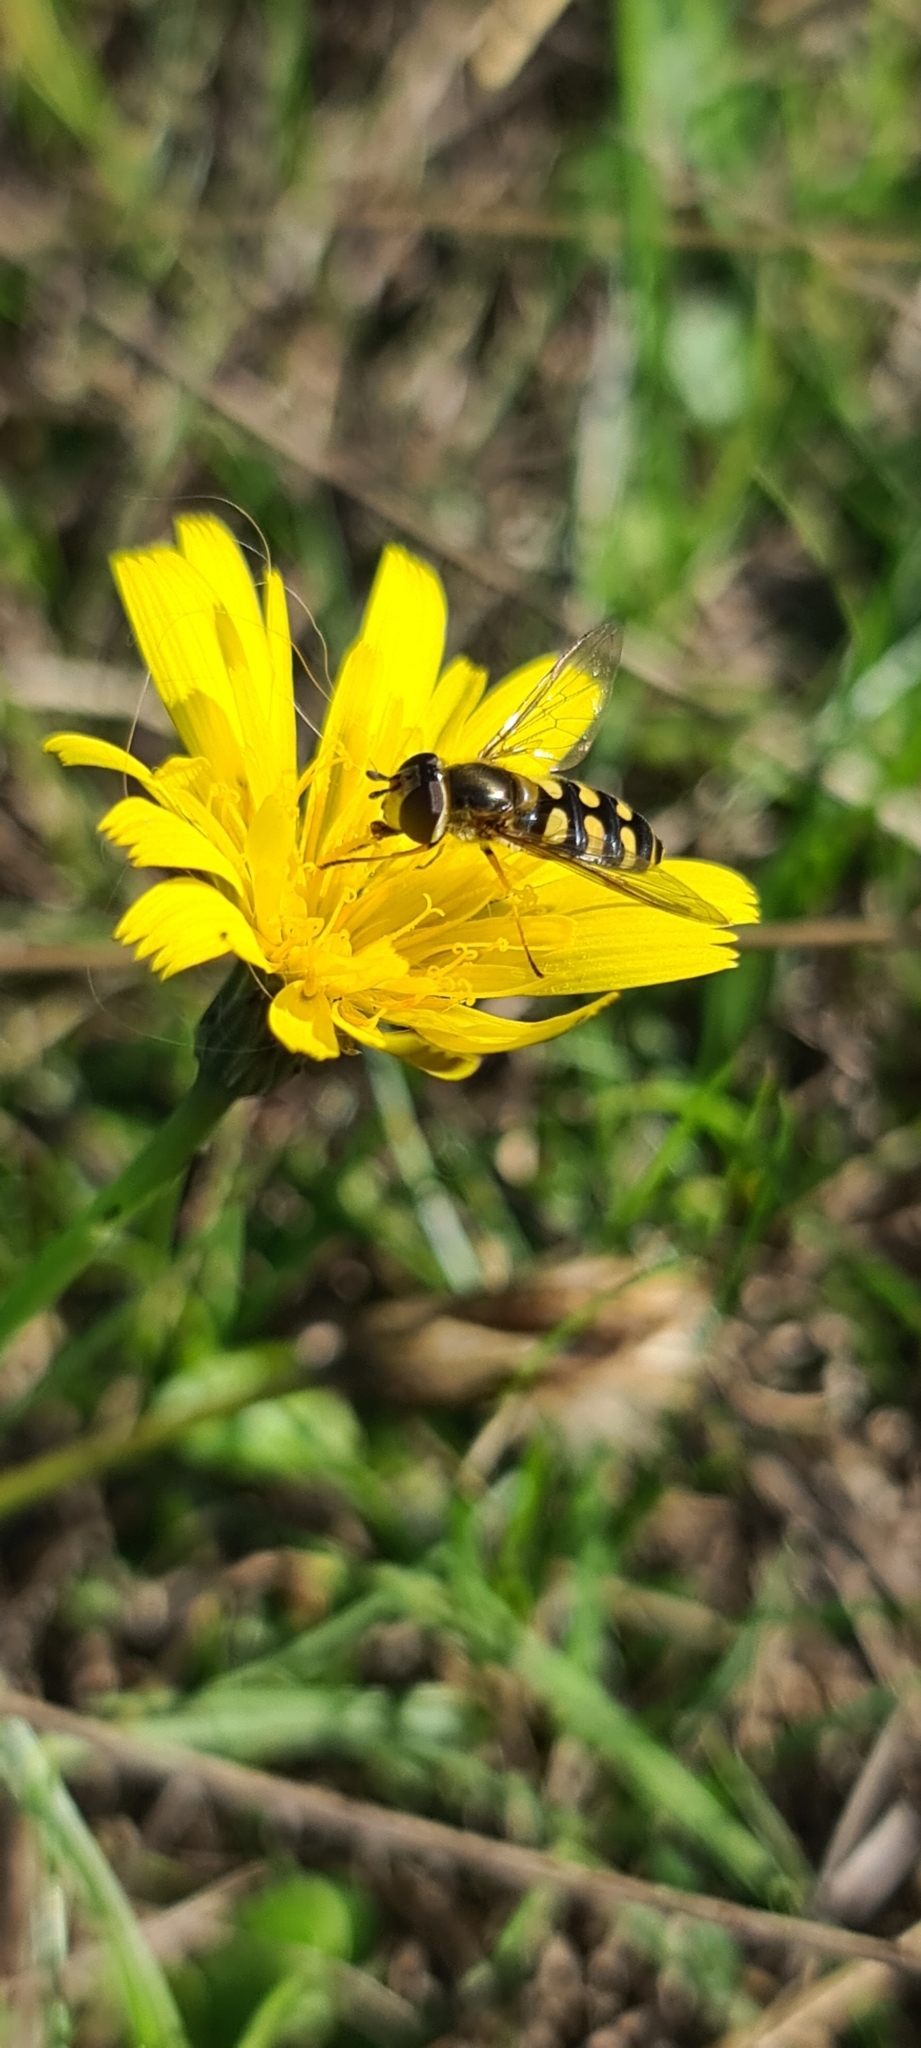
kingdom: Animalia
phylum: Arthropoda
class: Insecta
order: Diptera
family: Syrphidae
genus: Eupeodes
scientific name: Eupeodes luniger
